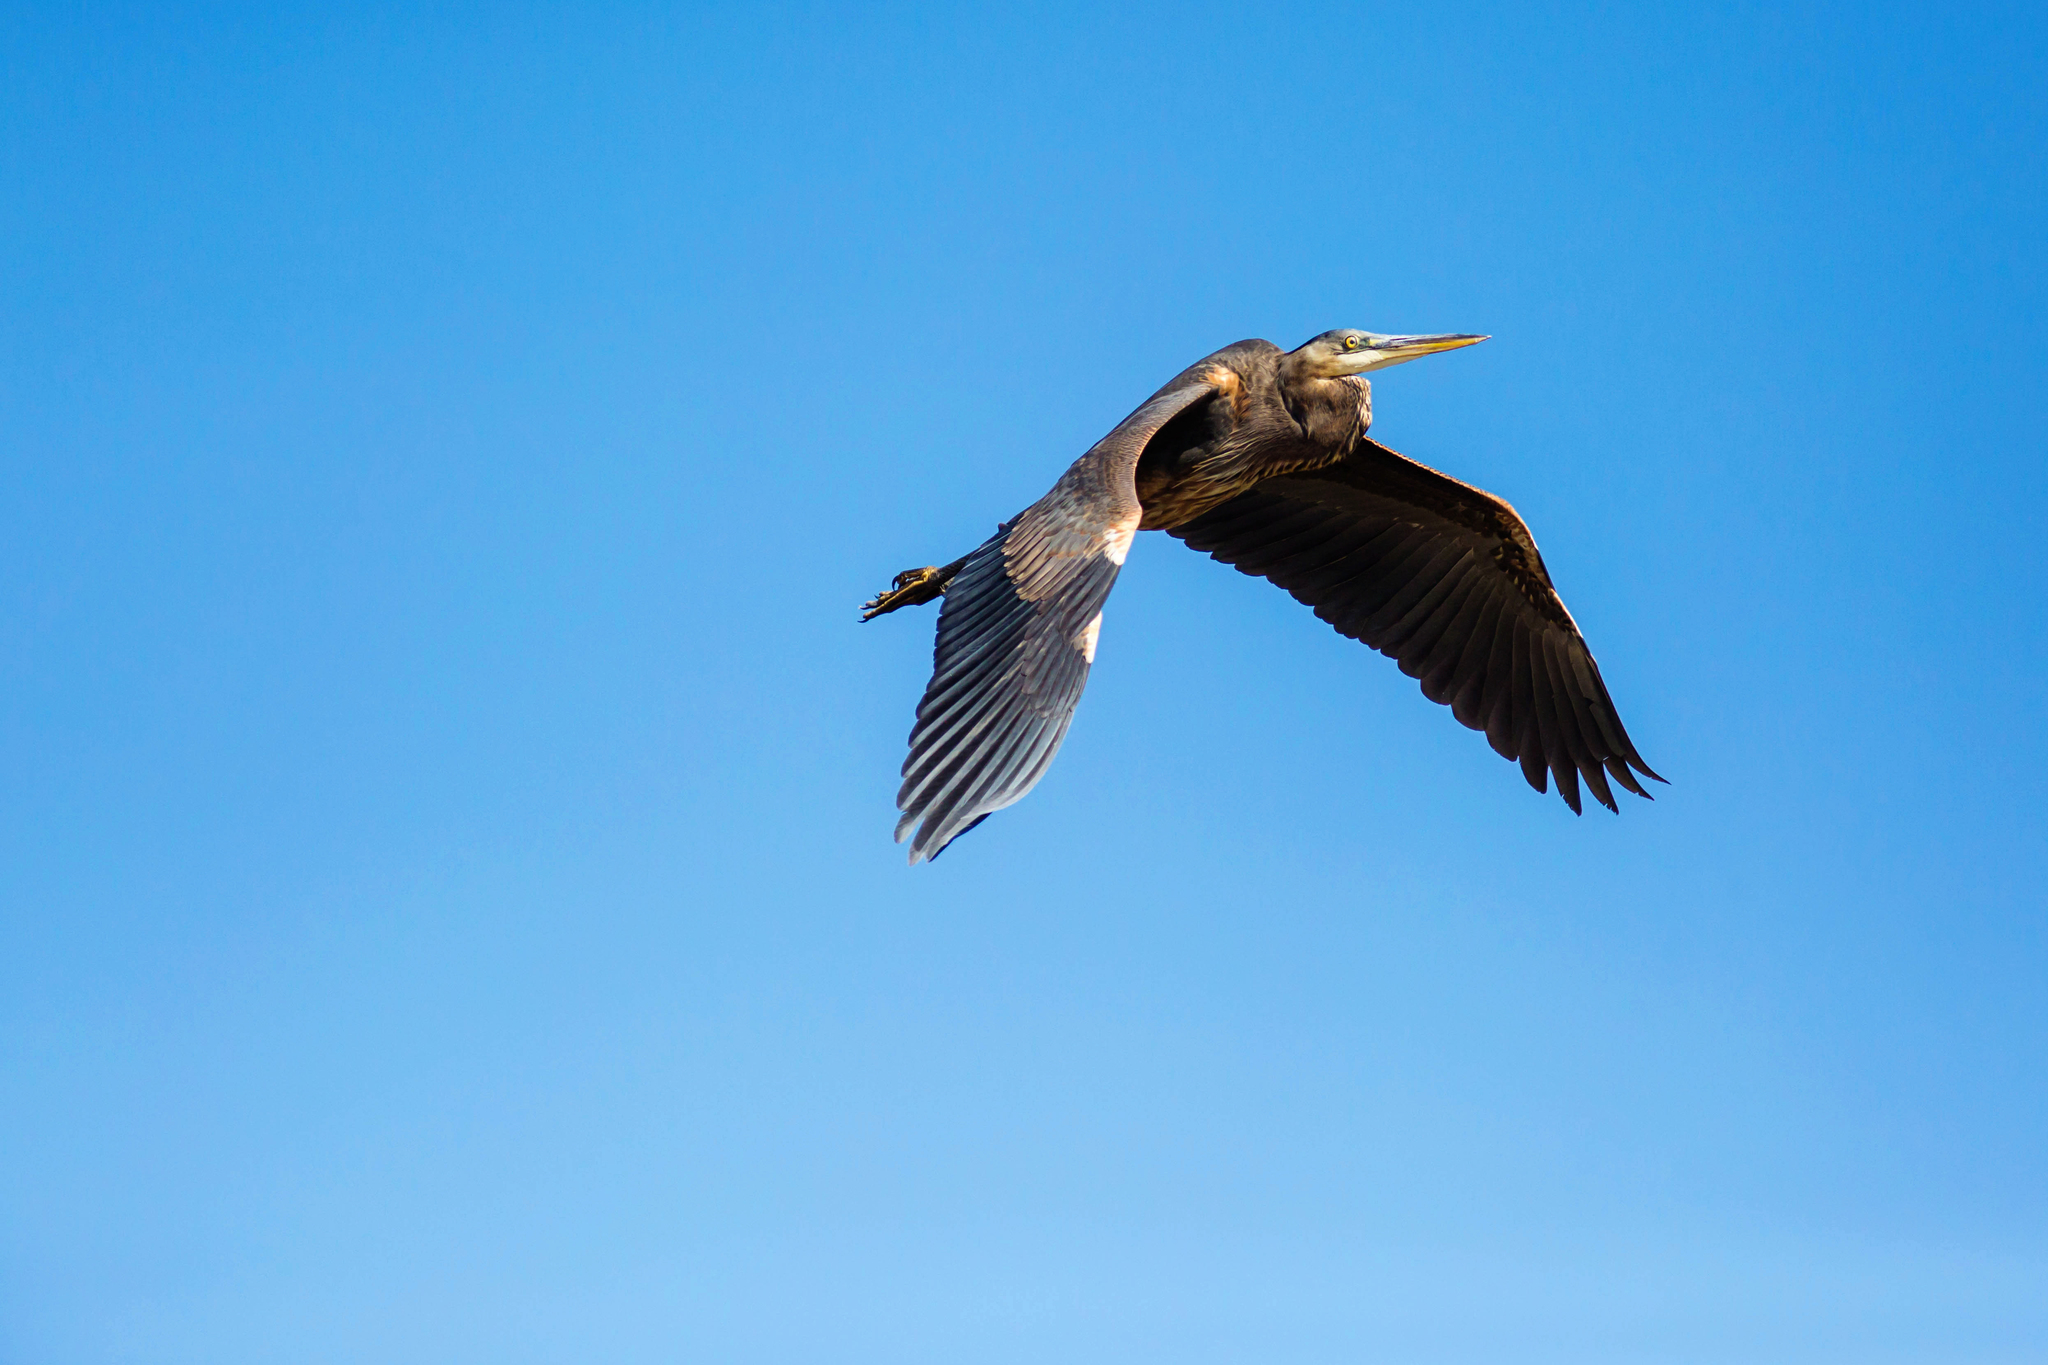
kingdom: Animalia
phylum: Chordata
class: Aves
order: Pelecaniformes
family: Ardeidae
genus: Ardea
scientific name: Ardea herodias
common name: Great blue heron
